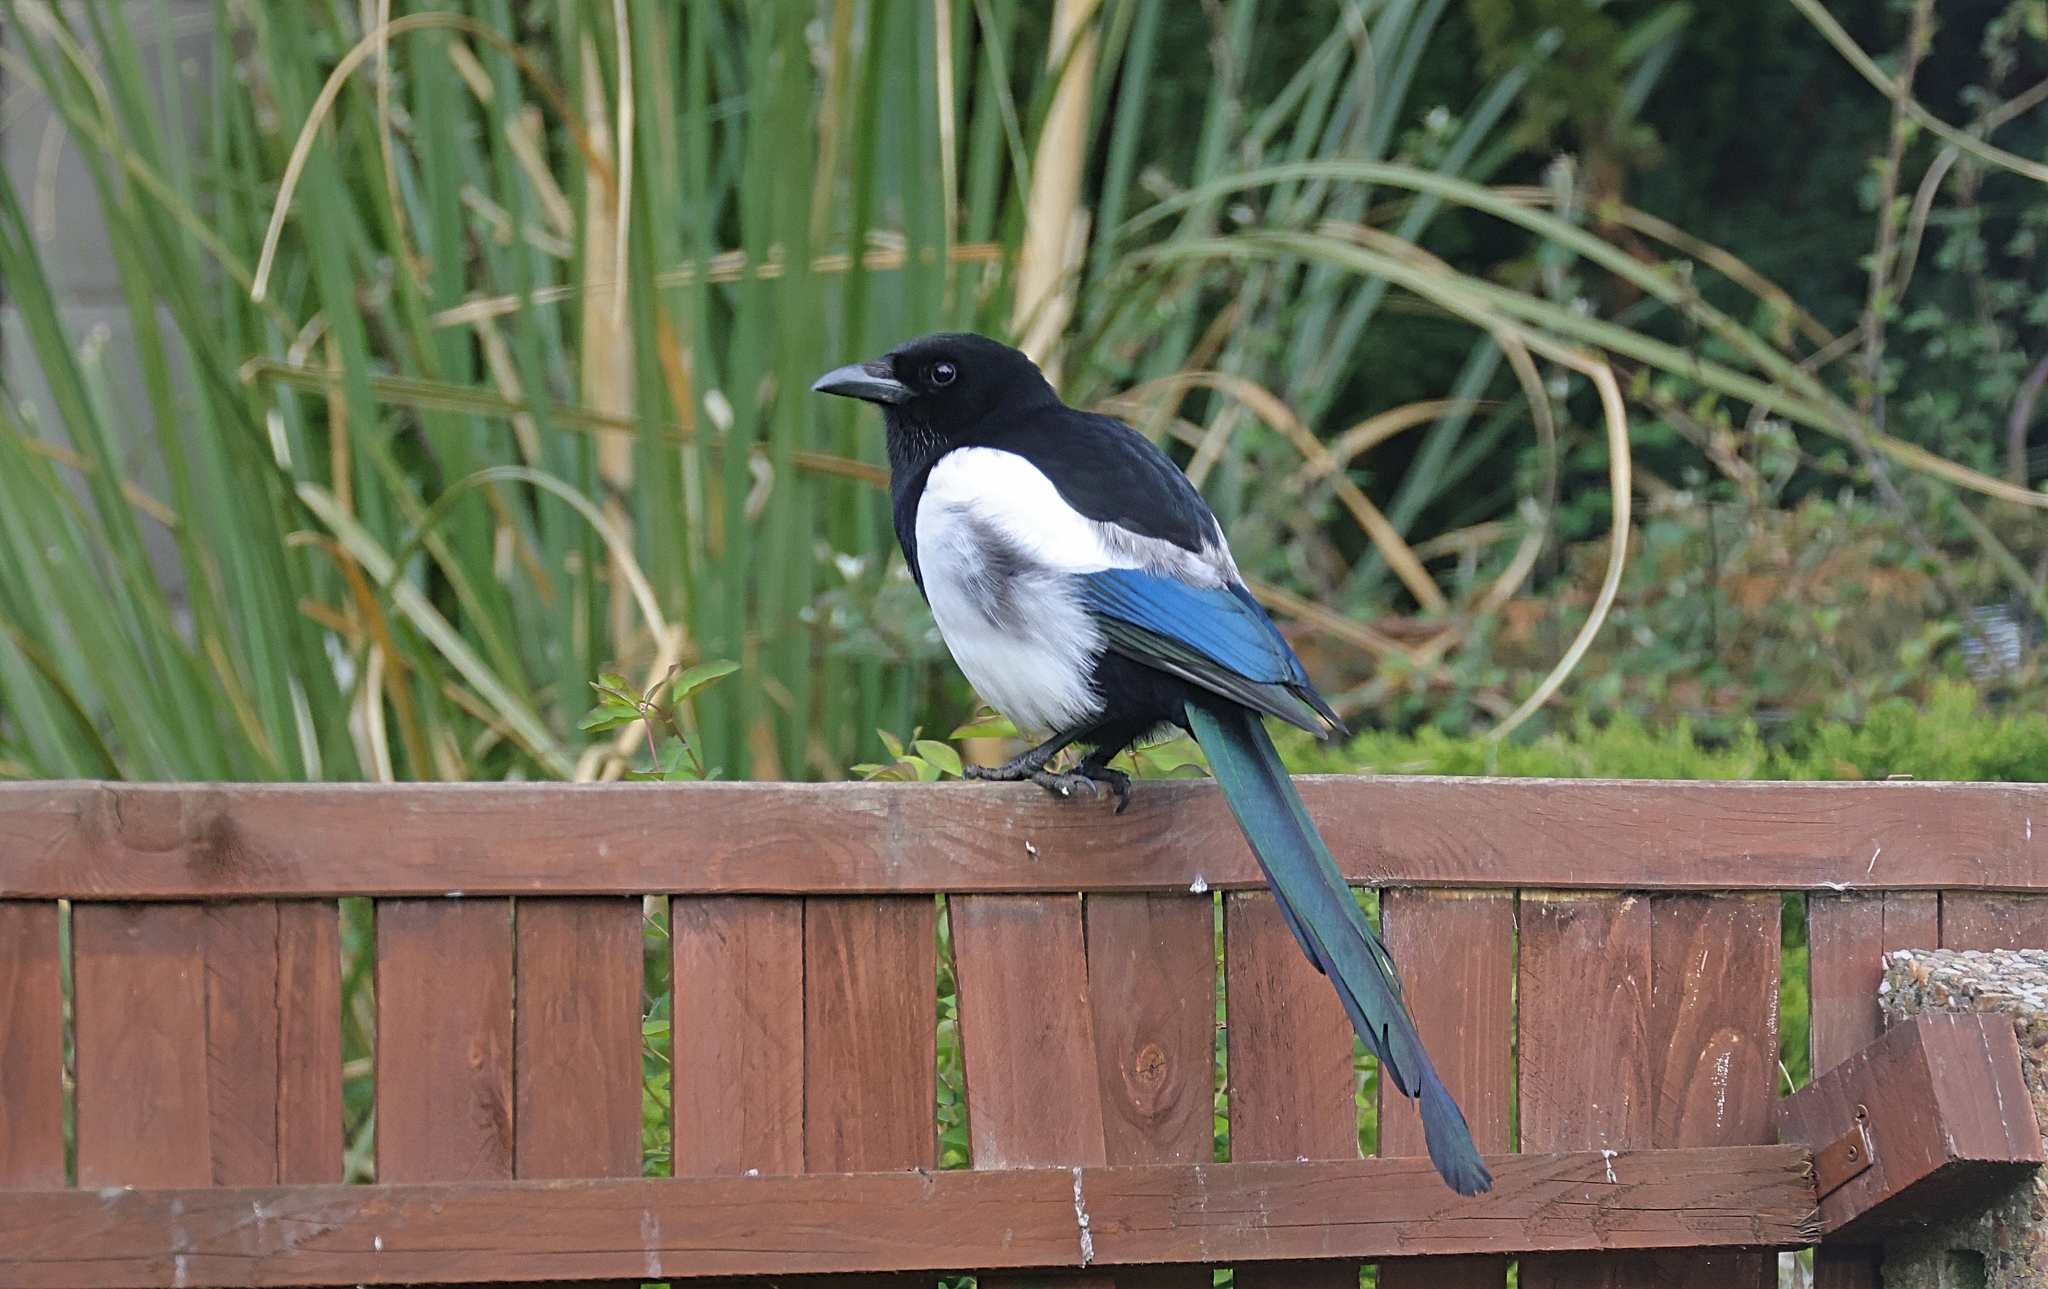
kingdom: Animalia
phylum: Chordata
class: Aves
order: Passeriformes
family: Corvidae
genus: Pica
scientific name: Pica pica
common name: Eurasian magpie
